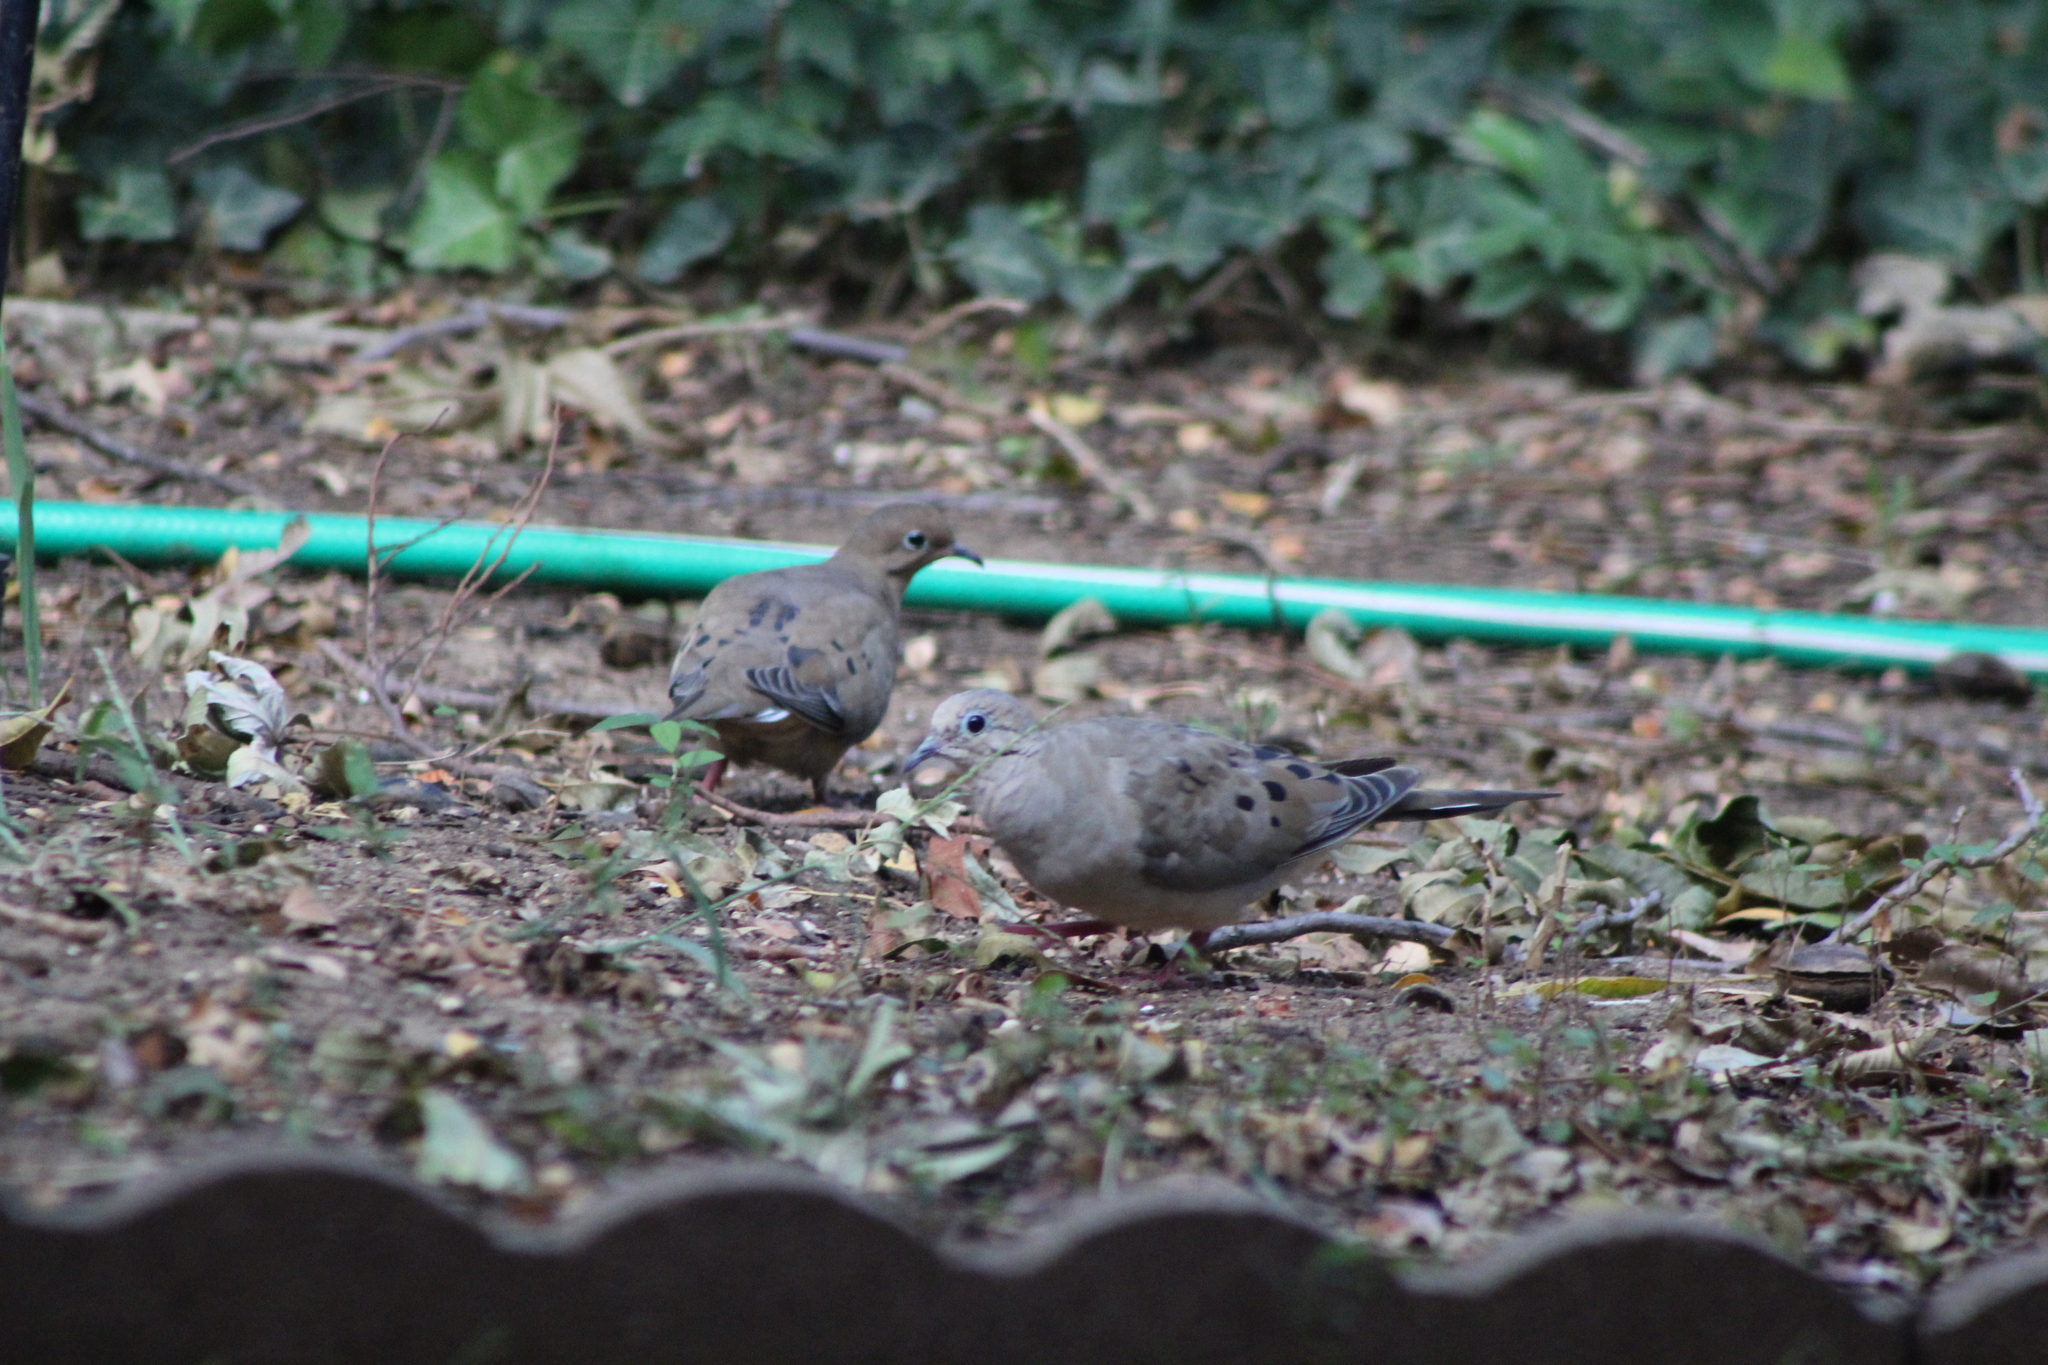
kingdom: Animalia
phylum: Chordata
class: Aves
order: Columbiformes
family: Columbidae
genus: Zenaida
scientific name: Zenaida macroura
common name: Mourning dove
